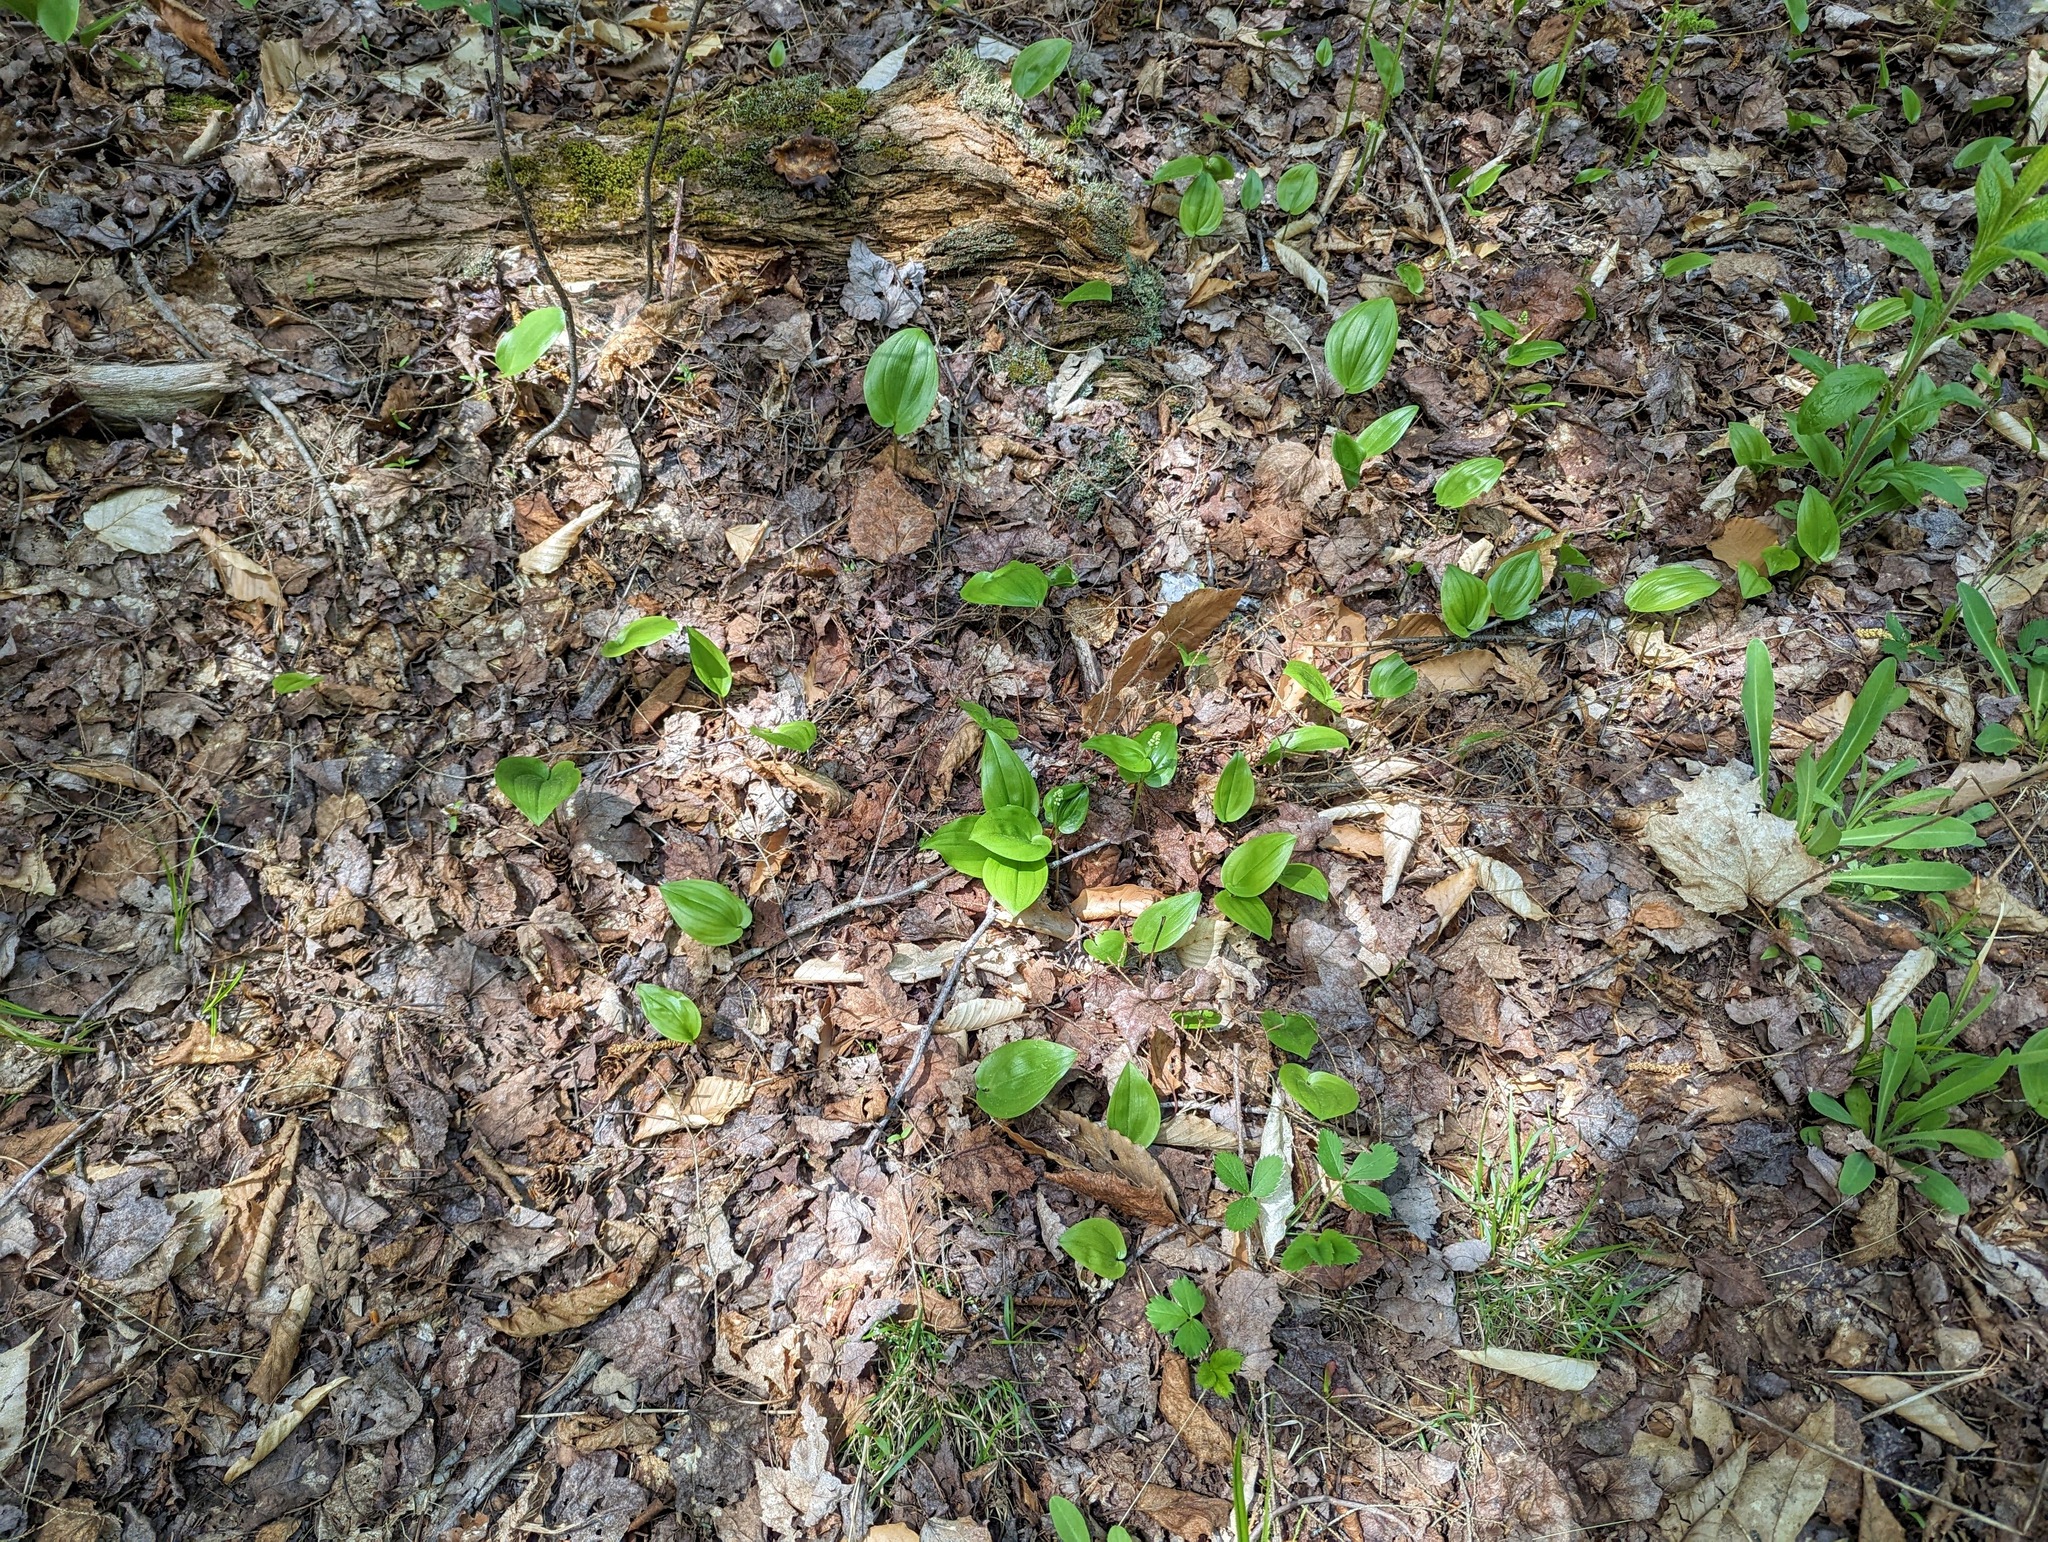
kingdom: Plantae
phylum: Tracheophyta
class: Liliopsida
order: Asparagales
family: Asparagaceae
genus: Maianthemum
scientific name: Maianthemum canadense
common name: False lily-of-the-valley
